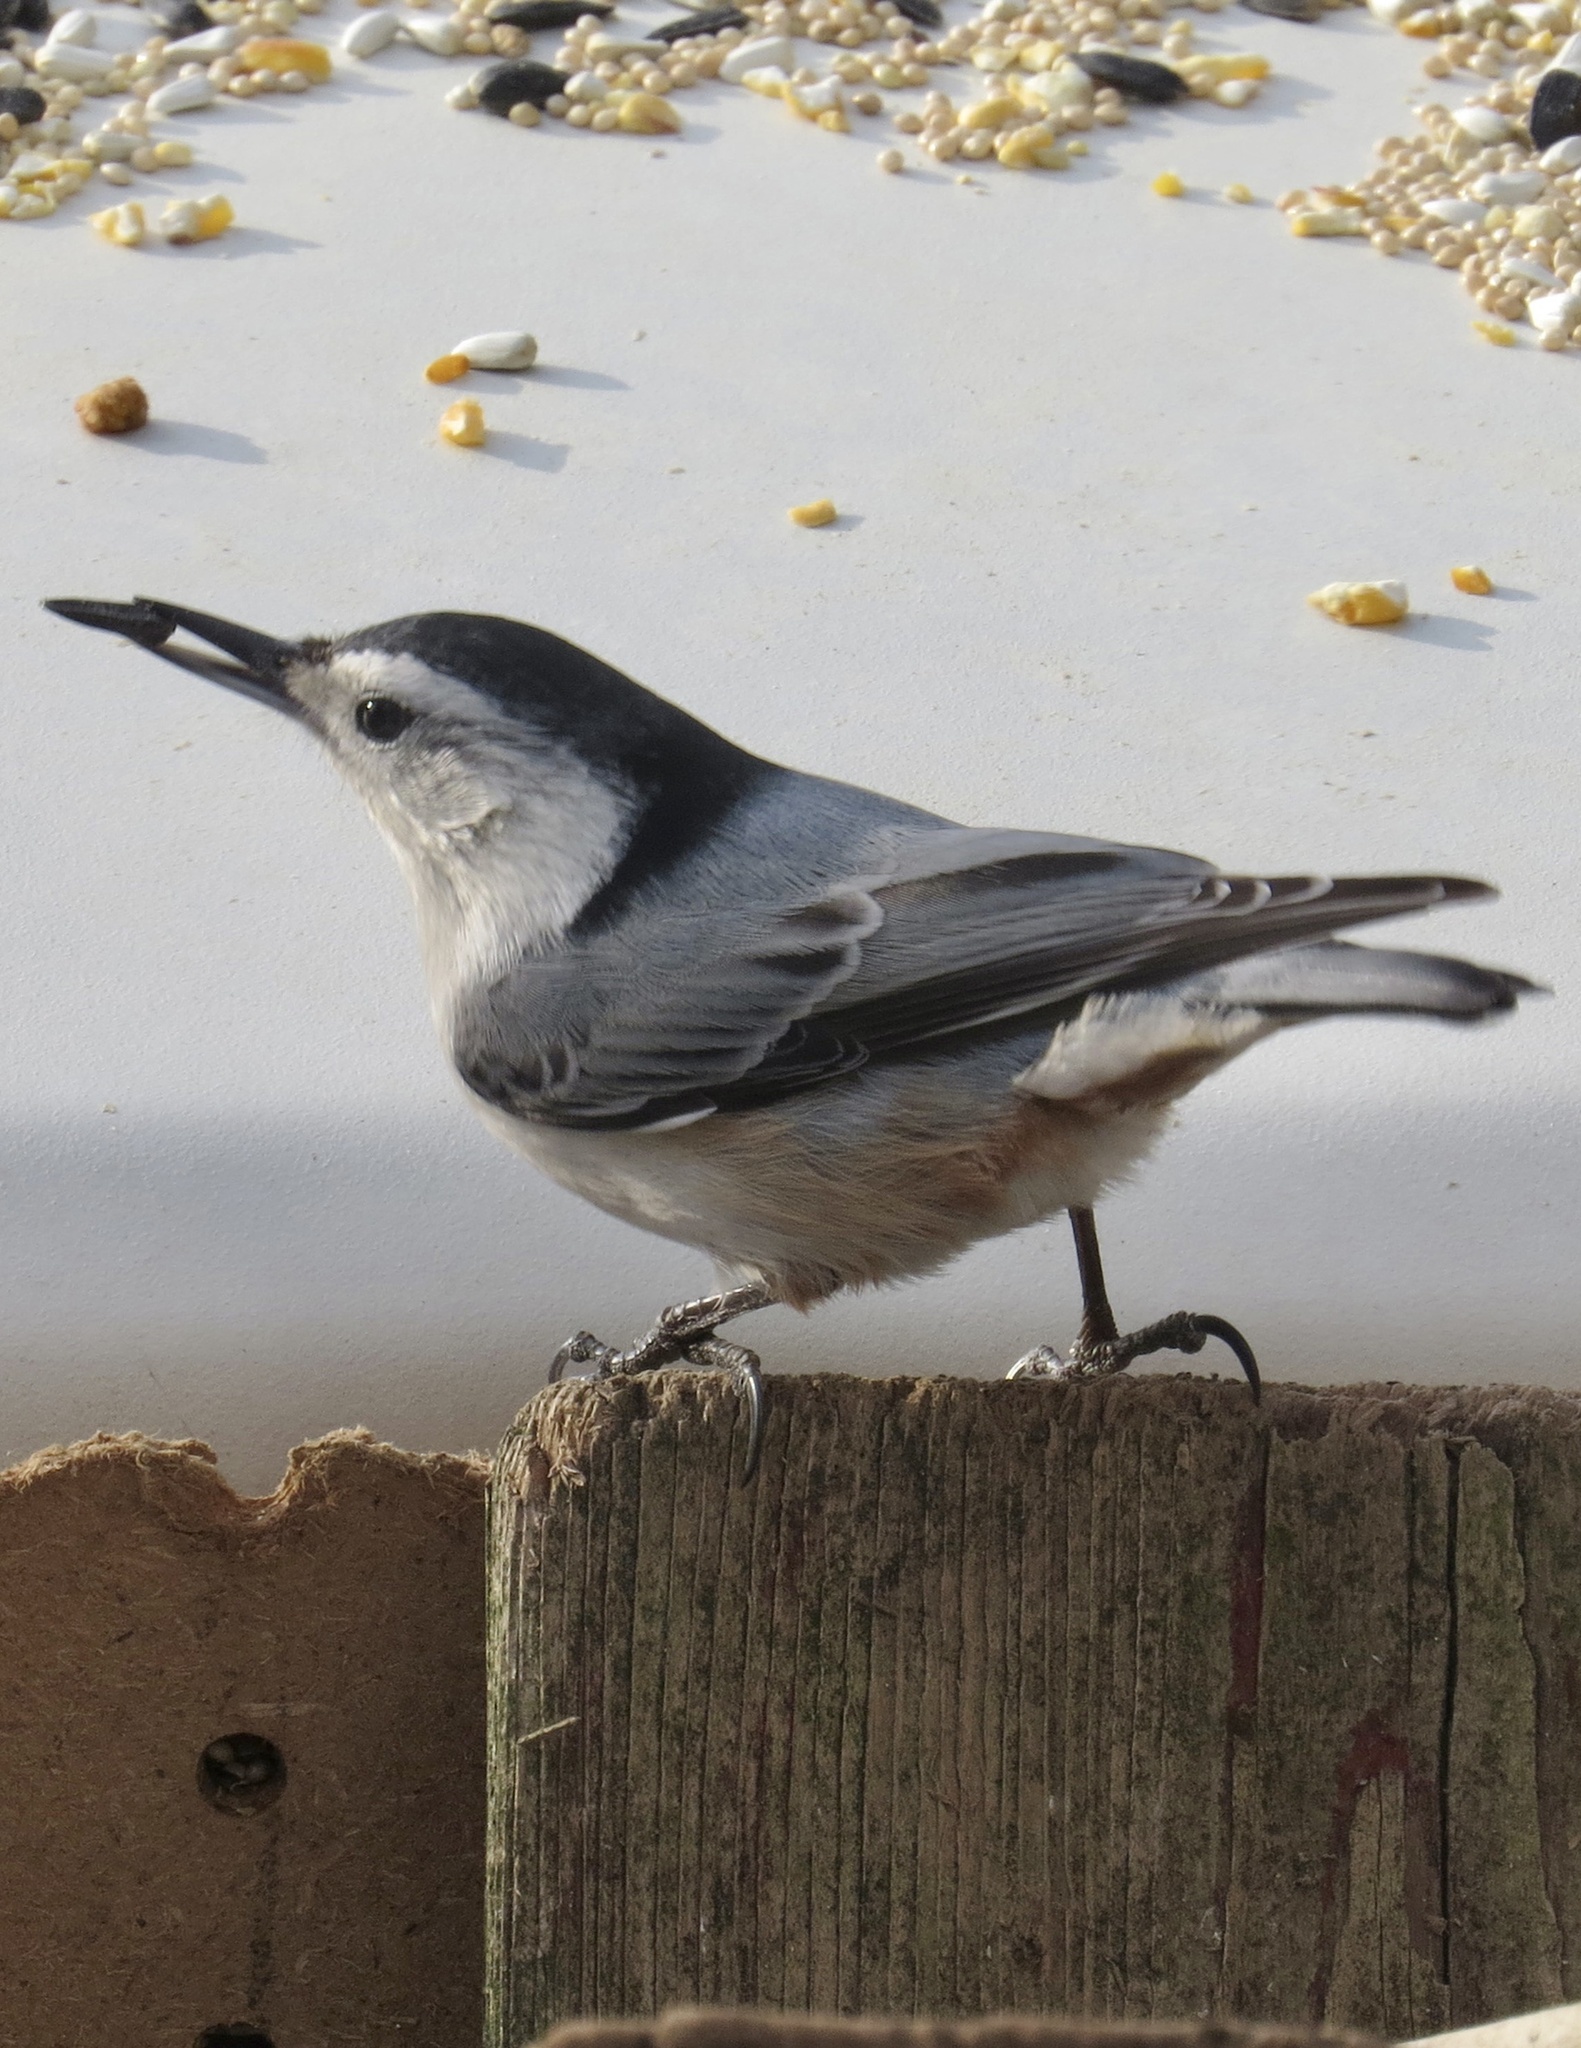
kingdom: Animalia
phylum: Chordata
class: Aves
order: Passeriformes
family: Sittidae
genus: Sitta
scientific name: Sitta carolinensis
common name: White-breasted nuthatch
